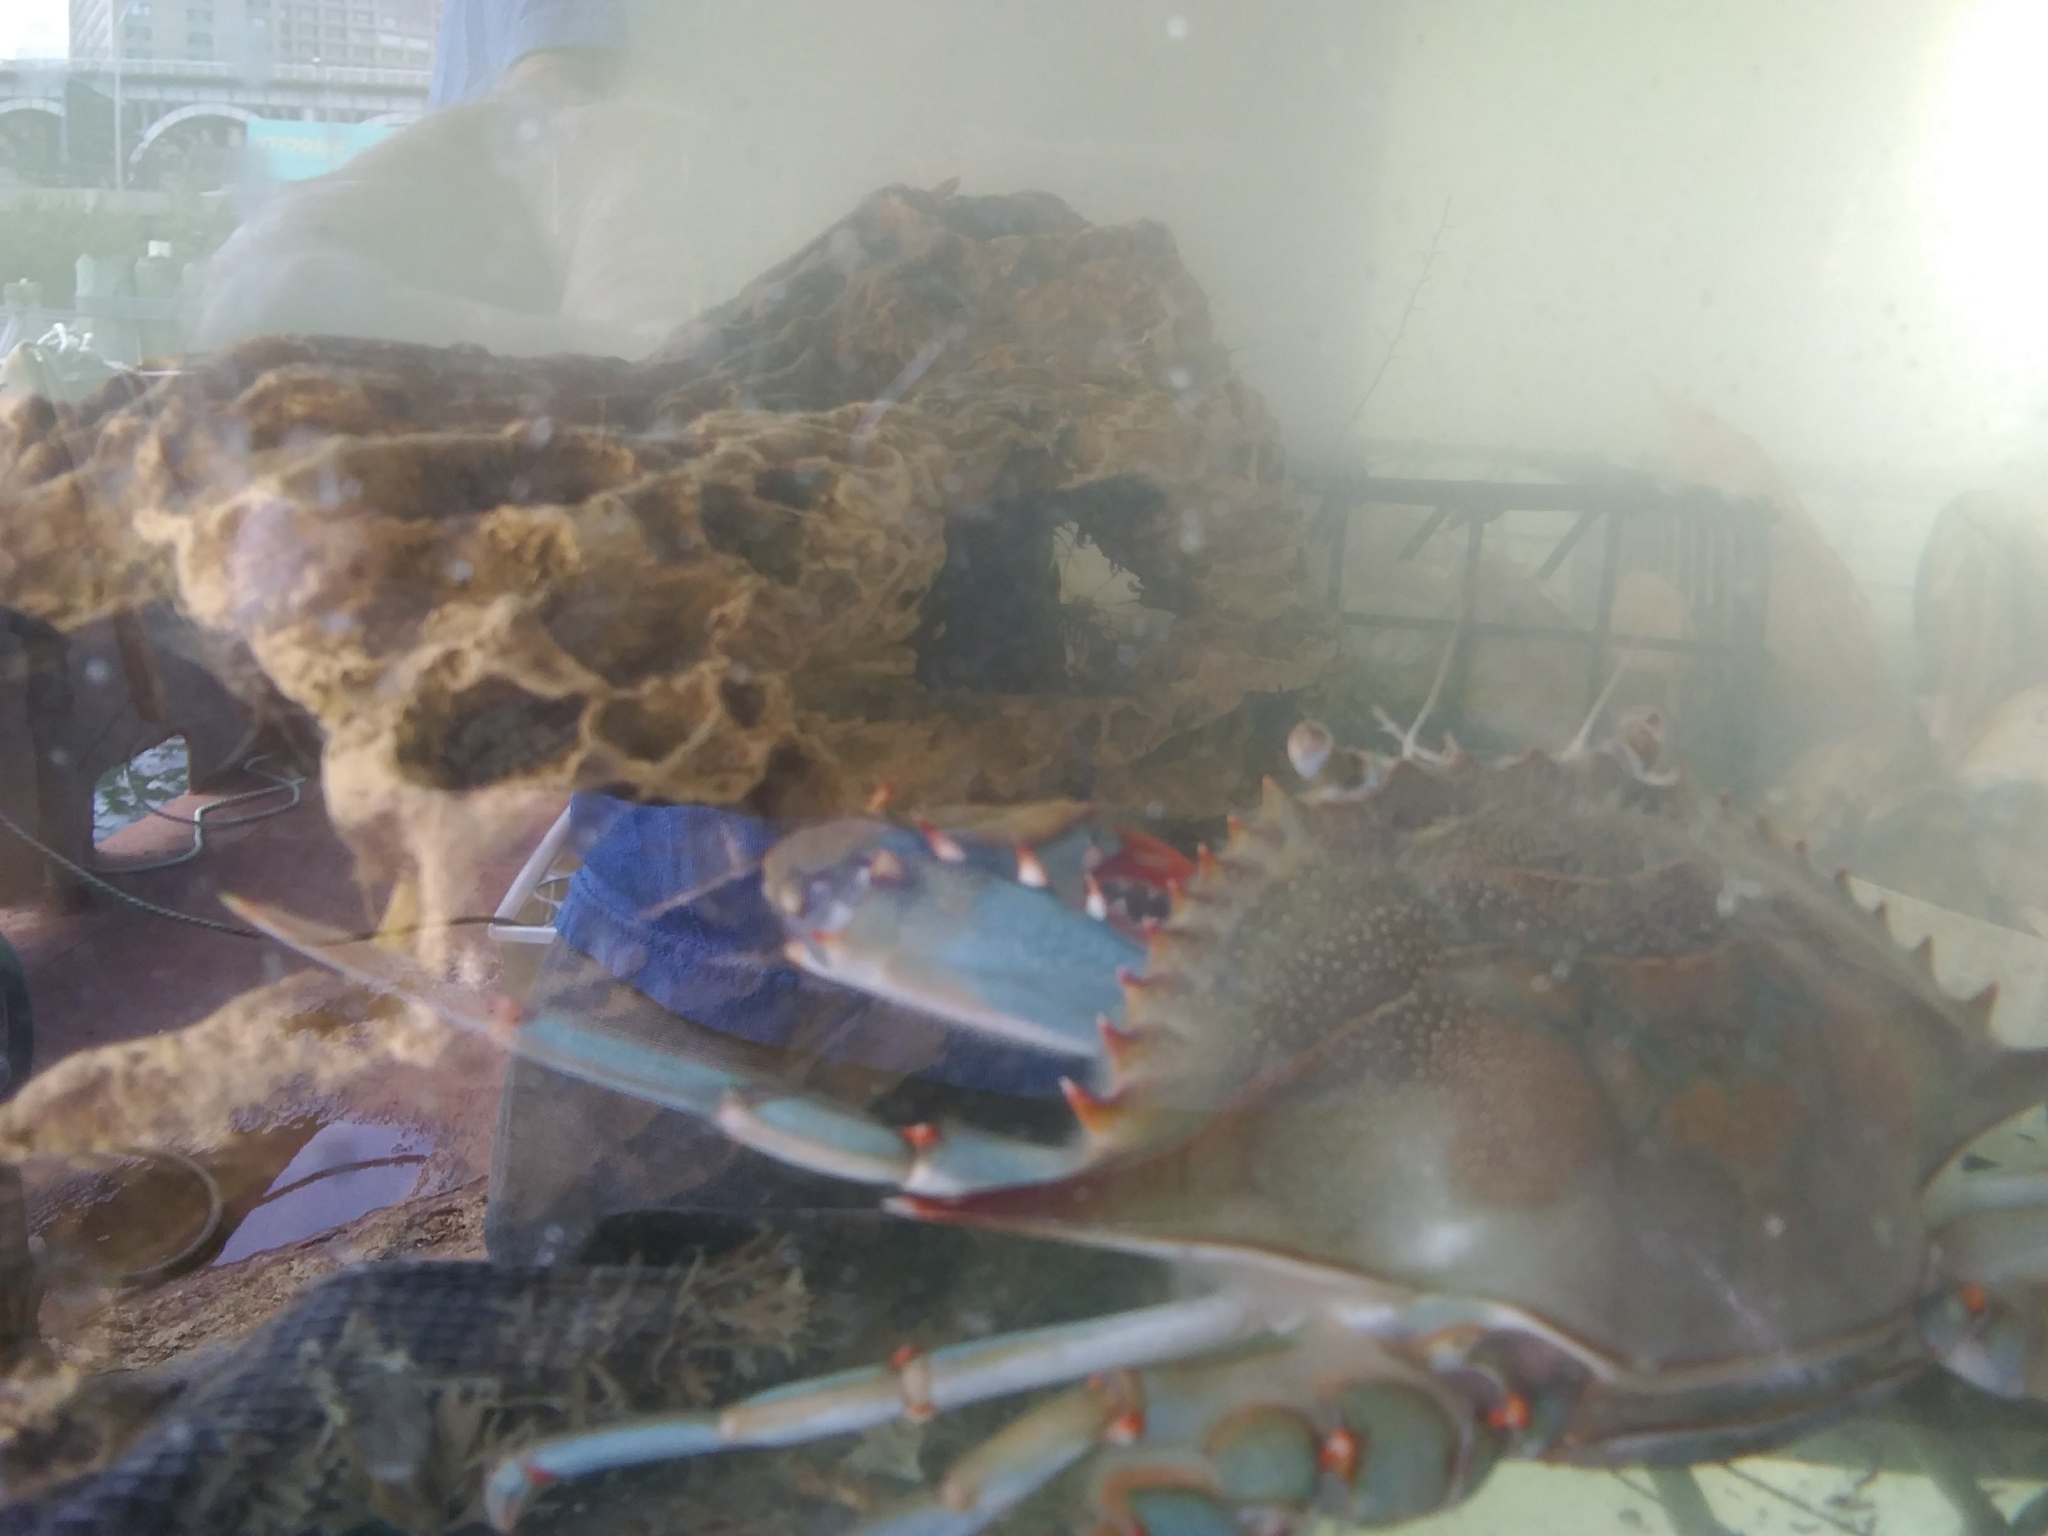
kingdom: Animalia
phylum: Arthropoda
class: Malacostraca
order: Decapoda
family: Portunidae
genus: Callinectes
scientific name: Callinectes sapidus
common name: Blue crab
